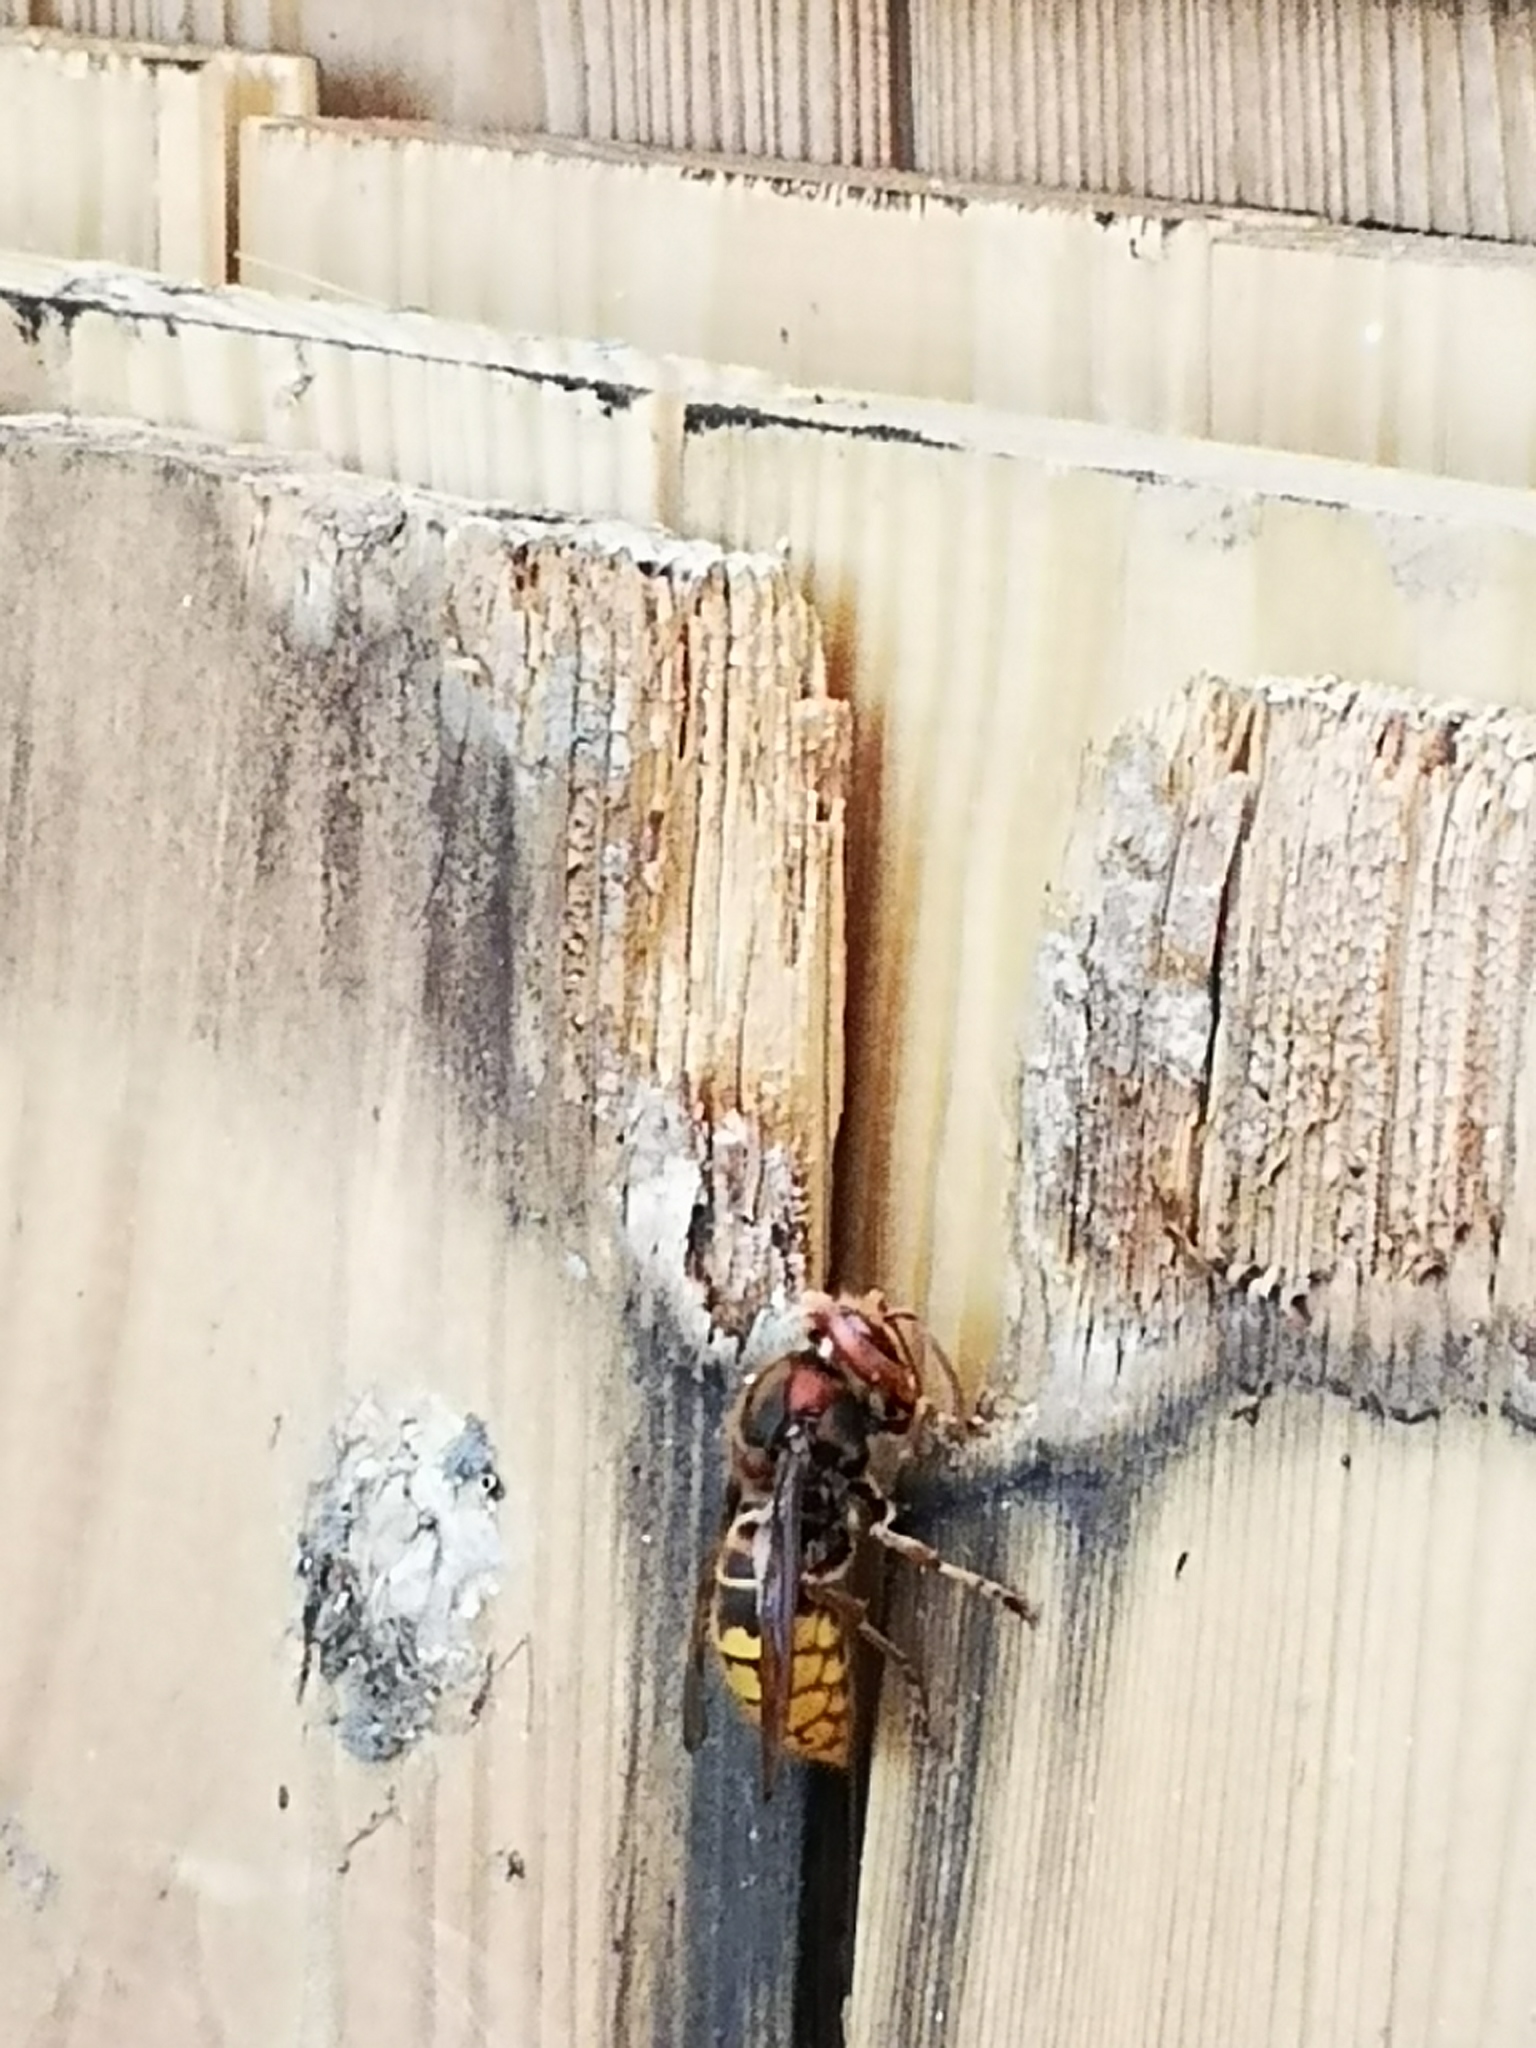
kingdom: Animalia
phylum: Arthropoda
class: Insecta
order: Hymenoptera
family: Vespidae
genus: Vespa
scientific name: Vespa crabro
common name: Hornet
